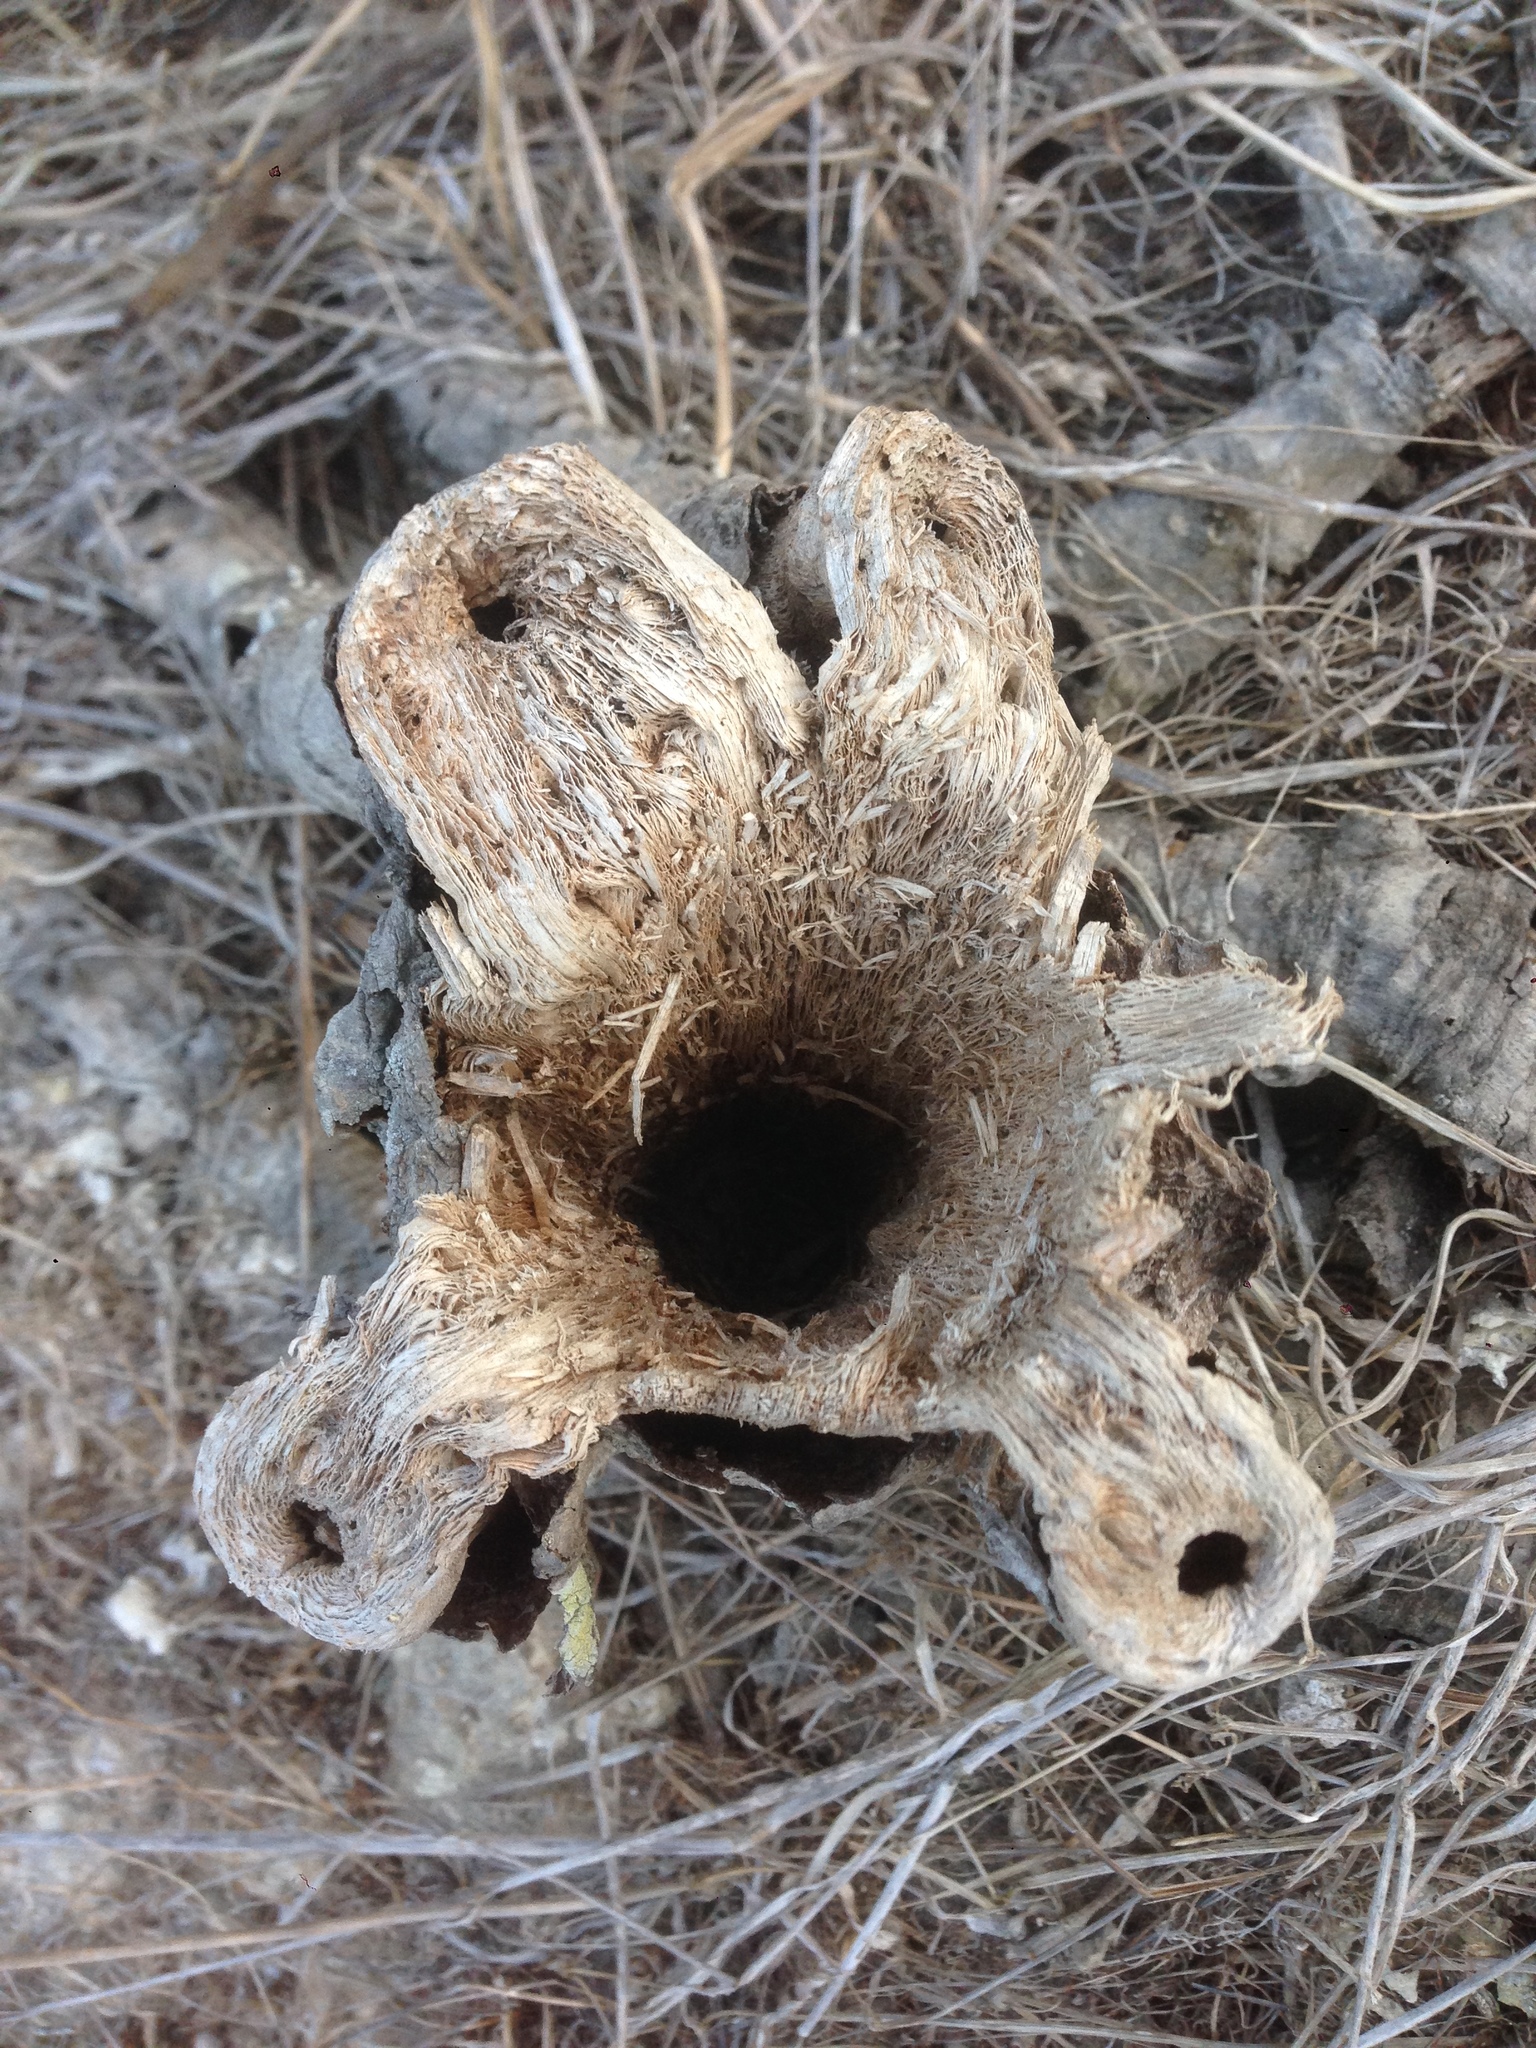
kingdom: Plantae
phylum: Tracheophyta
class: Magnoliopsida
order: Asterales
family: Asteraceae
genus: Coreopsis
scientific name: Coreopsis gigantea
